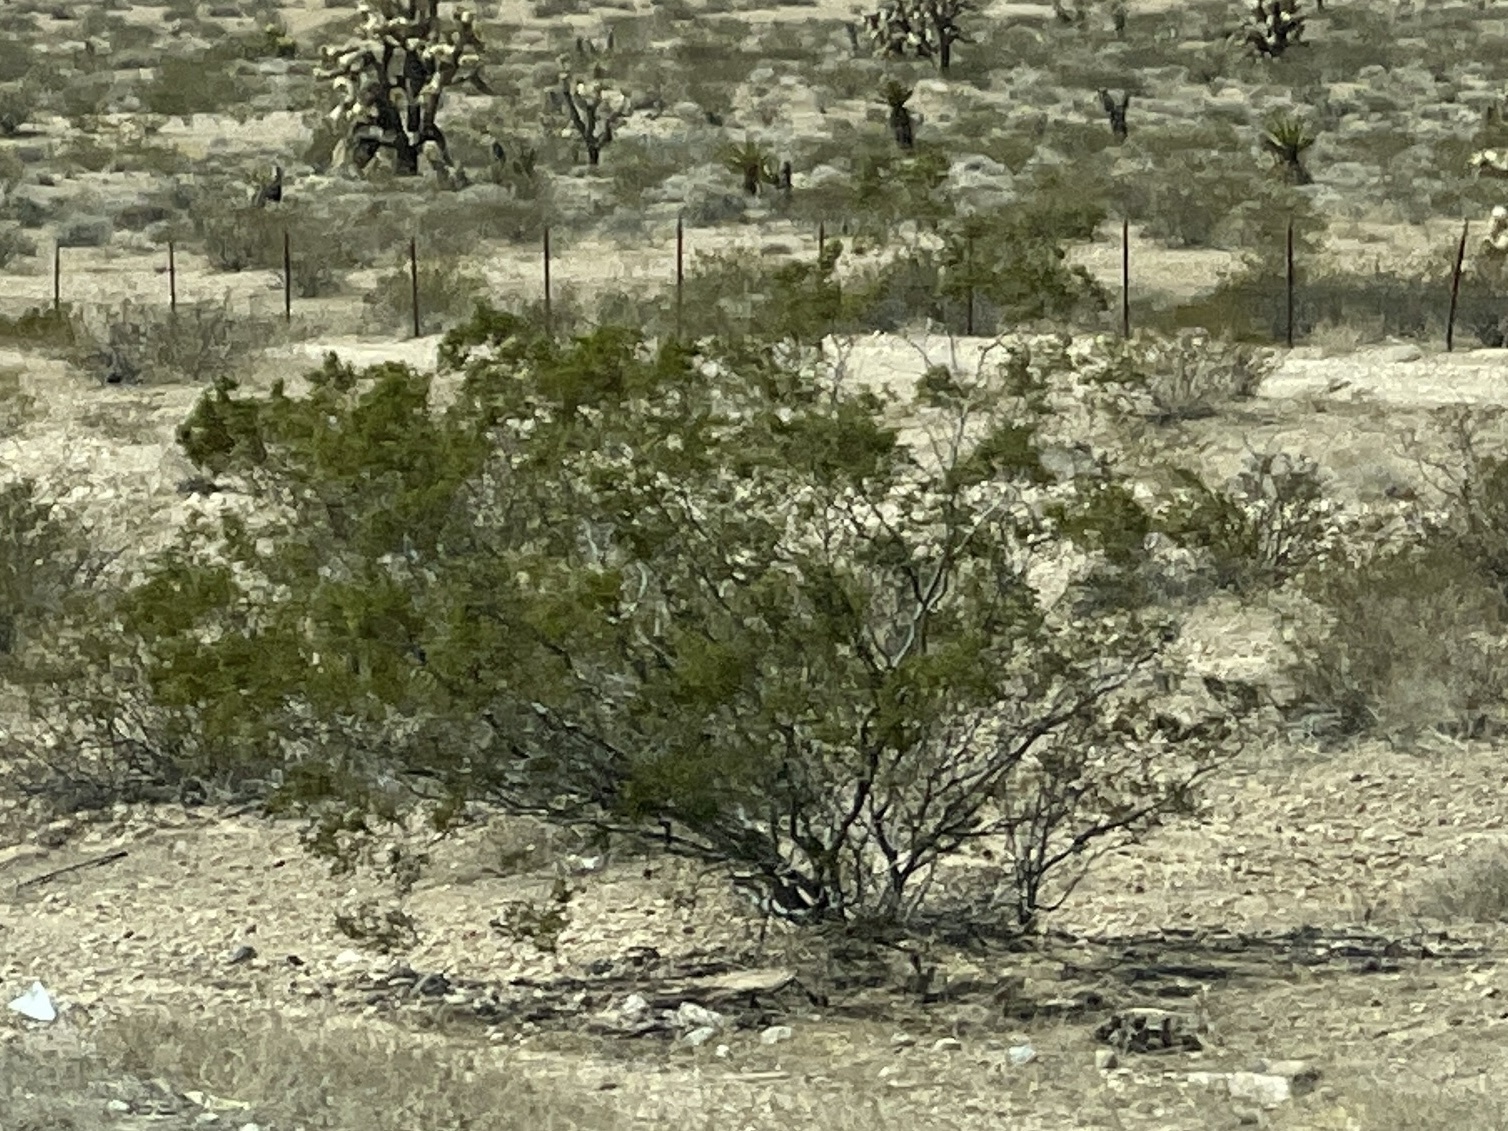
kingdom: Plantae
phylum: Tracheophyta
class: Magnoliopsida
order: Zygophyllales
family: Zygophyllaceae
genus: Larrea
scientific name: Larrea tridentata
